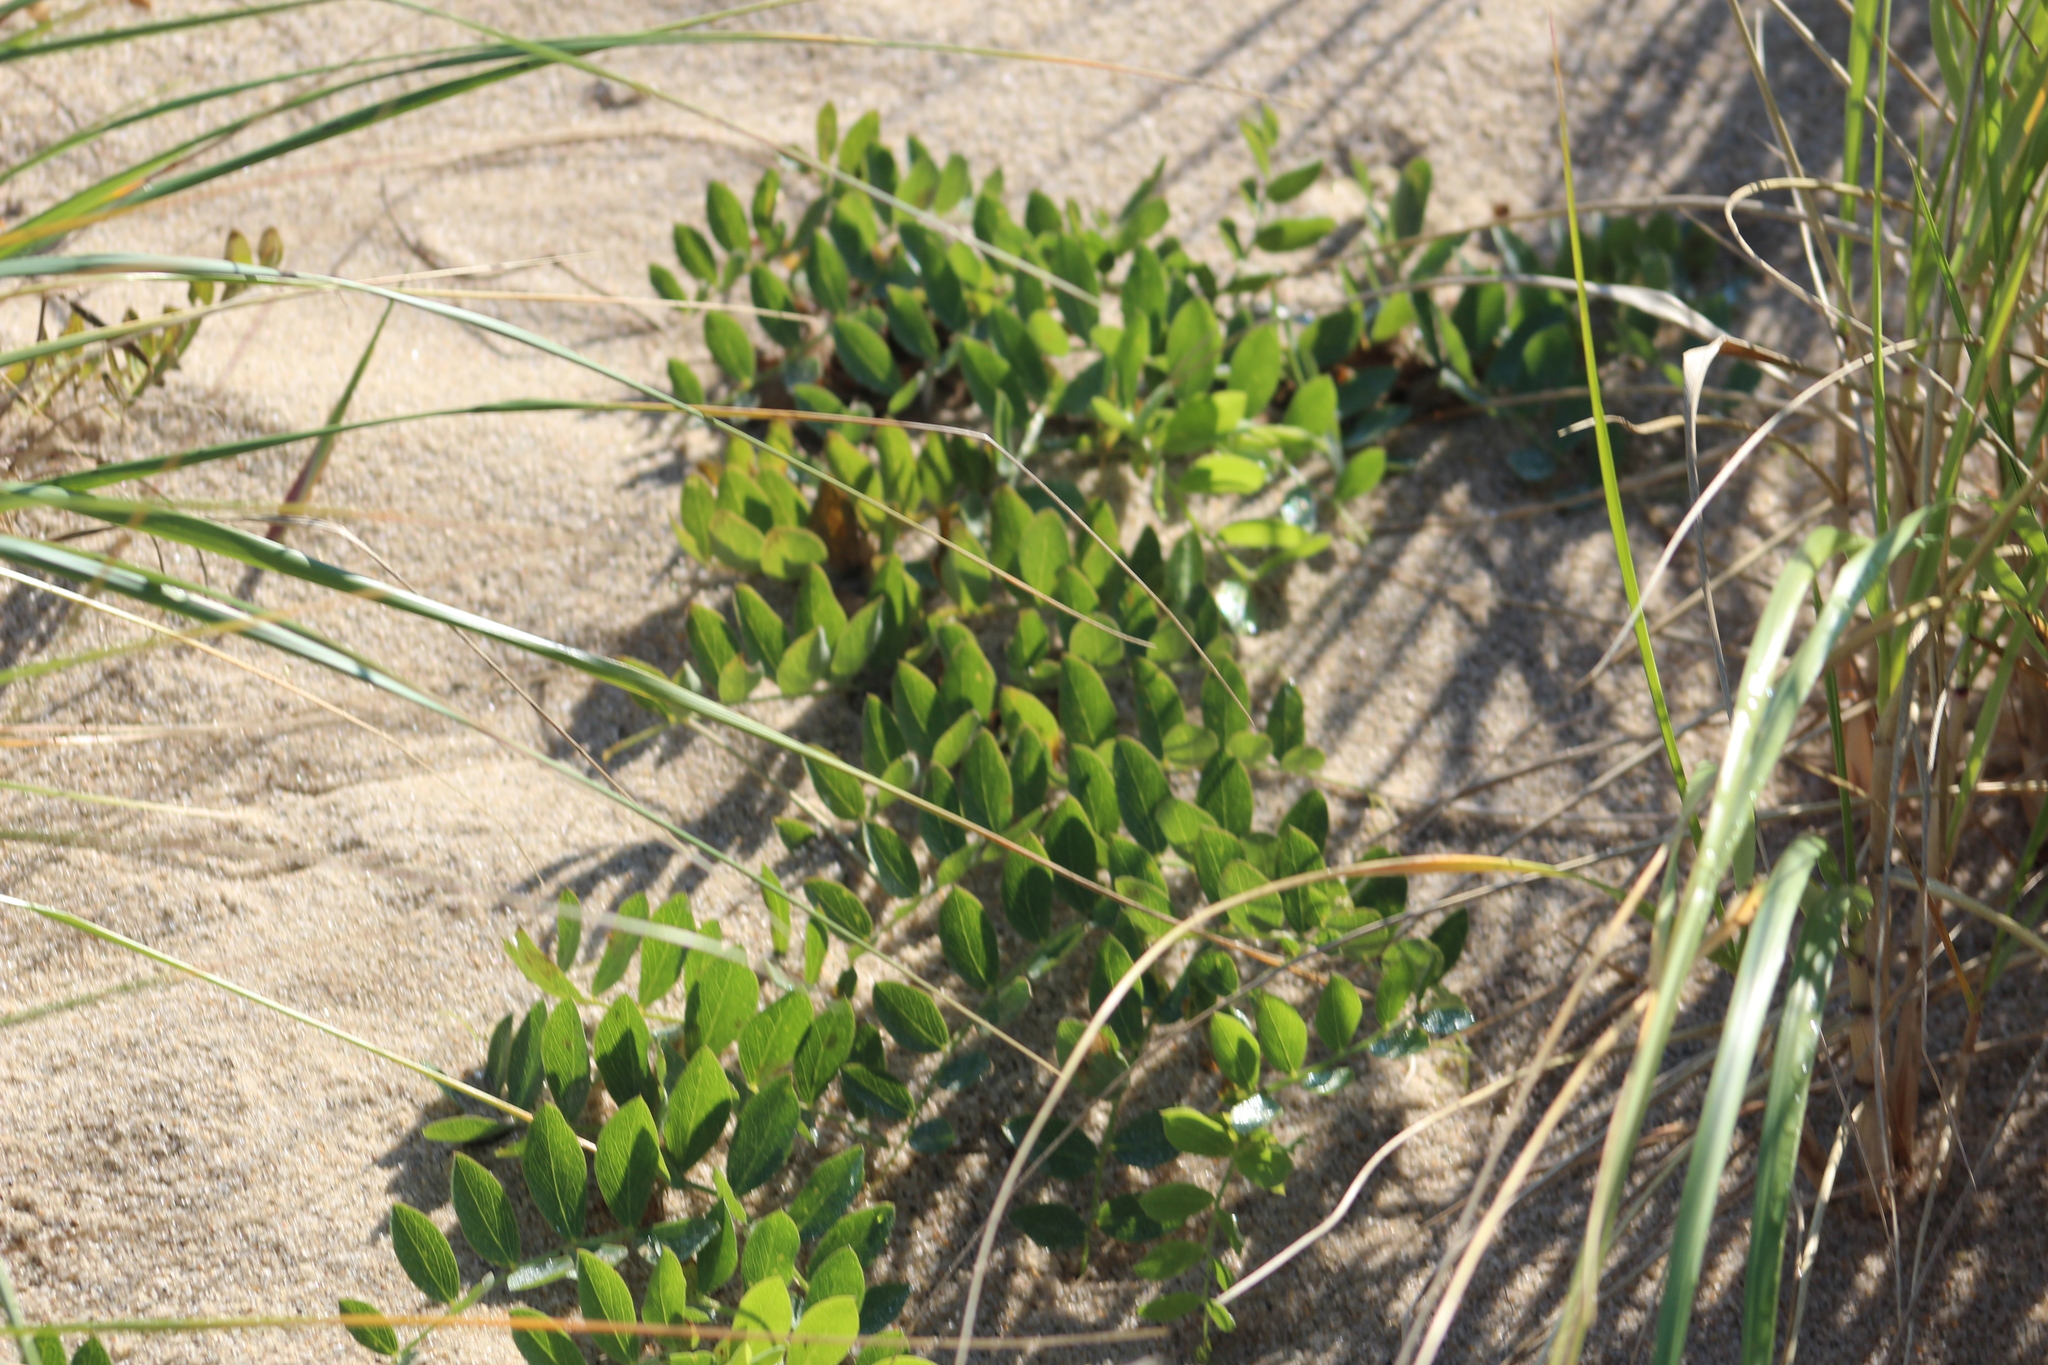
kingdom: Plantae
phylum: Tracheophyta
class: Magnoliopsida
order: Fabales
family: Fabaceae
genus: Lathyrus
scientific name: Lathyrus japonicus
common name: Sea pea
